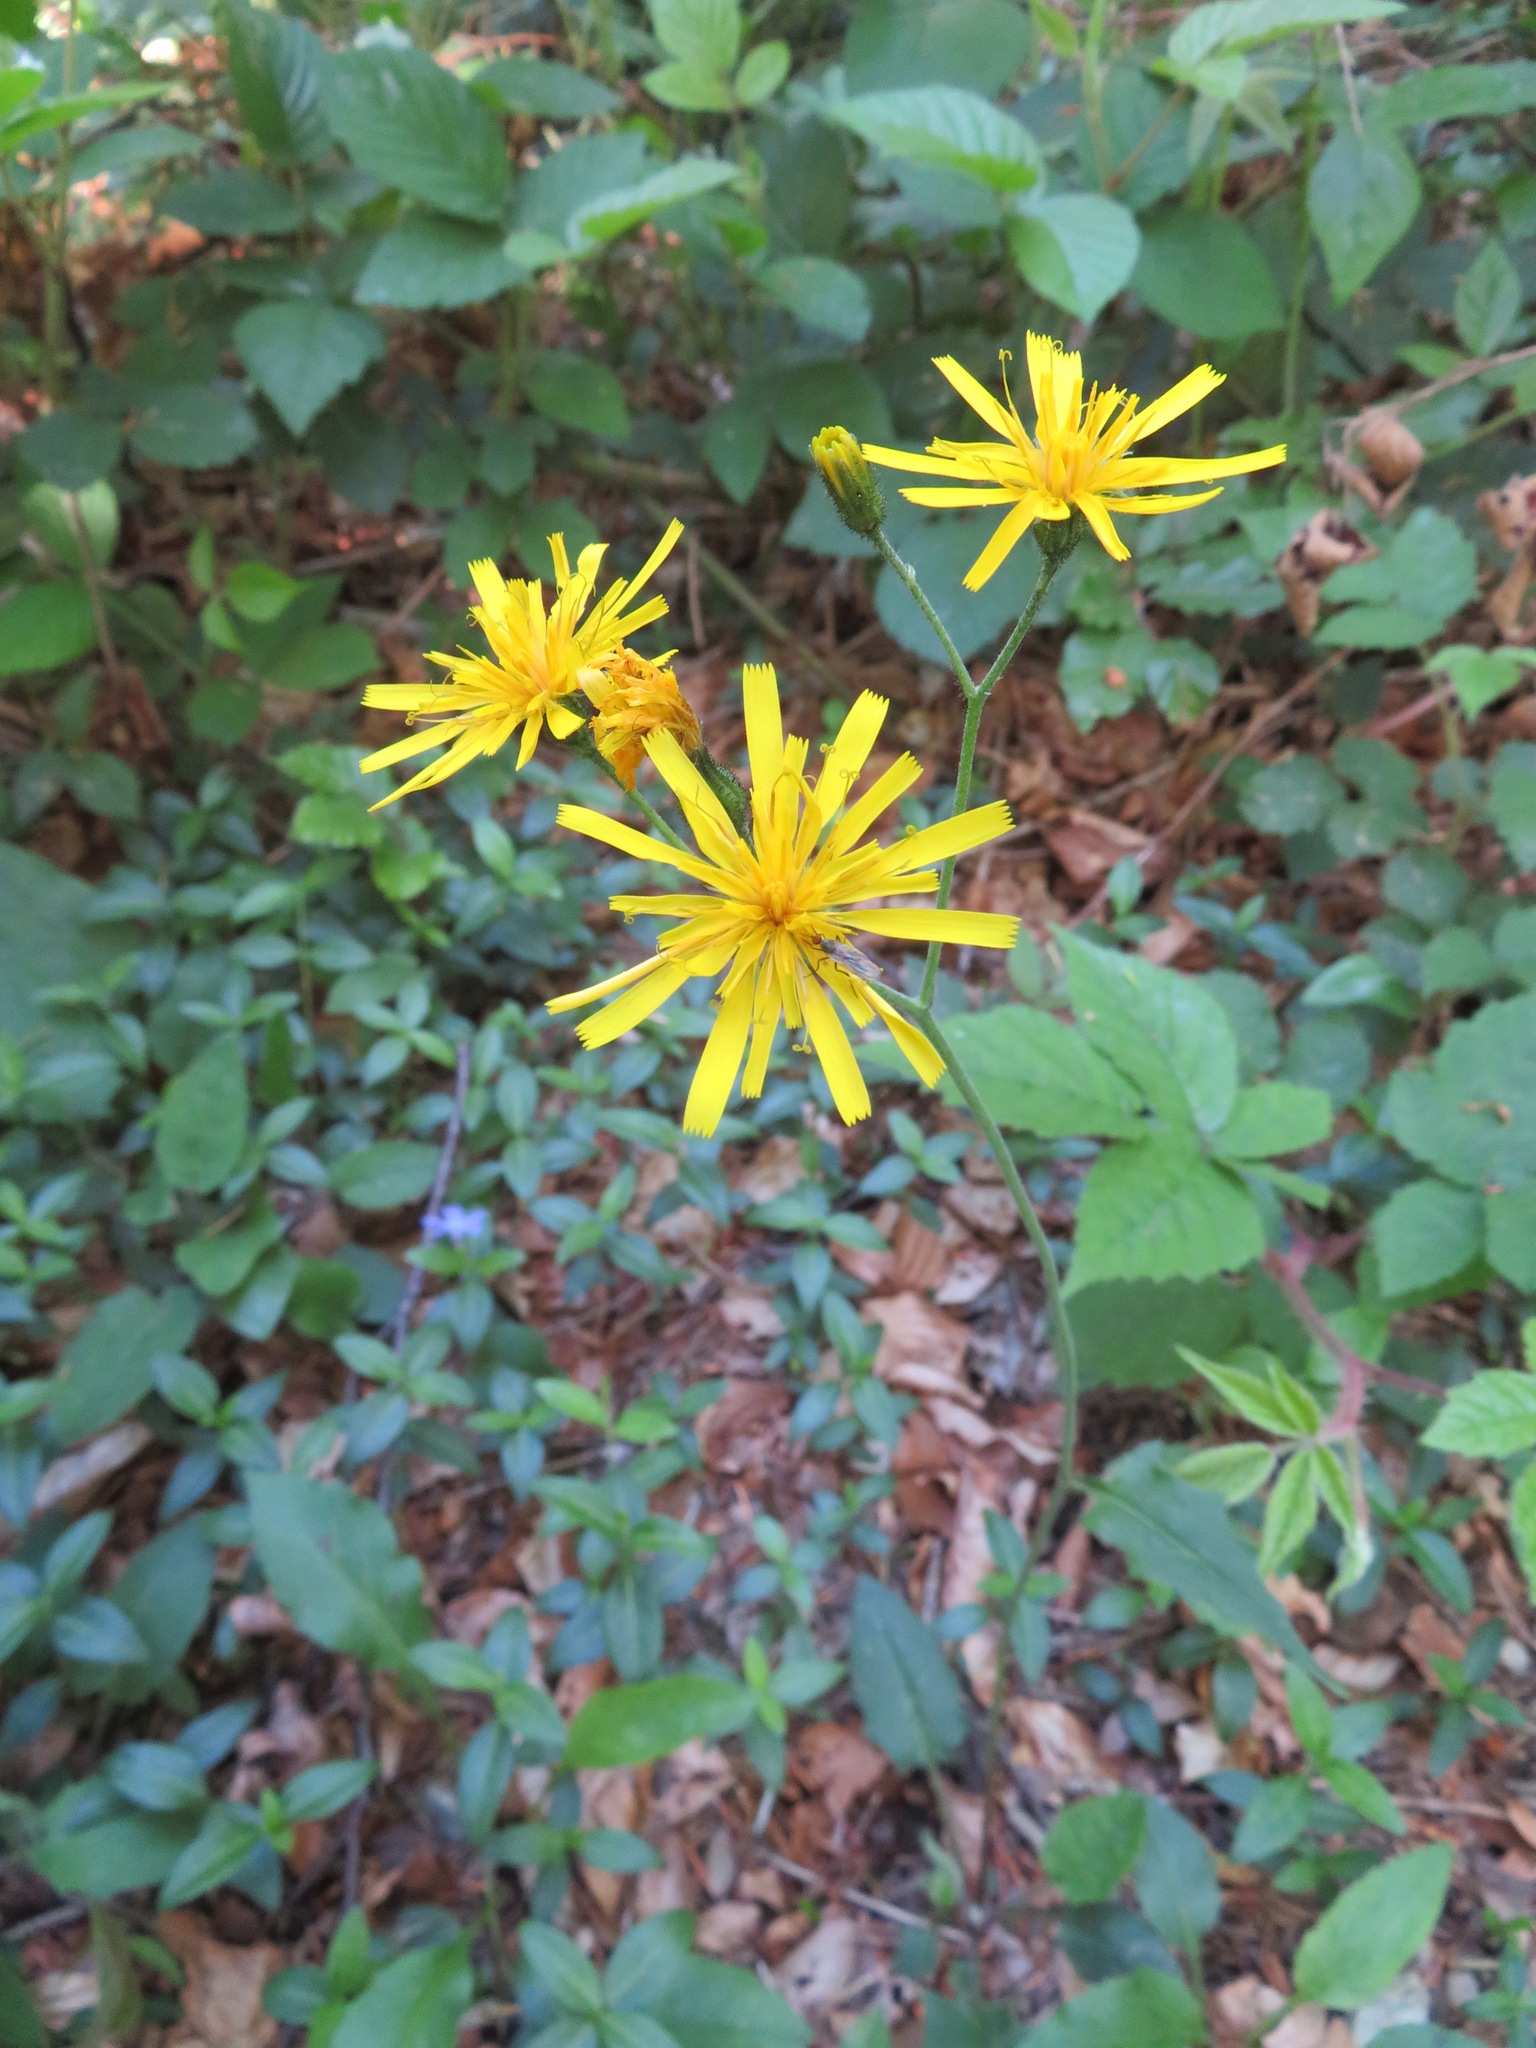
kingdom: Plantae
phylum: Tracheophyta
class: Magnoliopsida
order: Asterales
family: Asteraceae
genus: Hieracium
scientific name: Hieracium murorum
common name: Wall hawkweed
